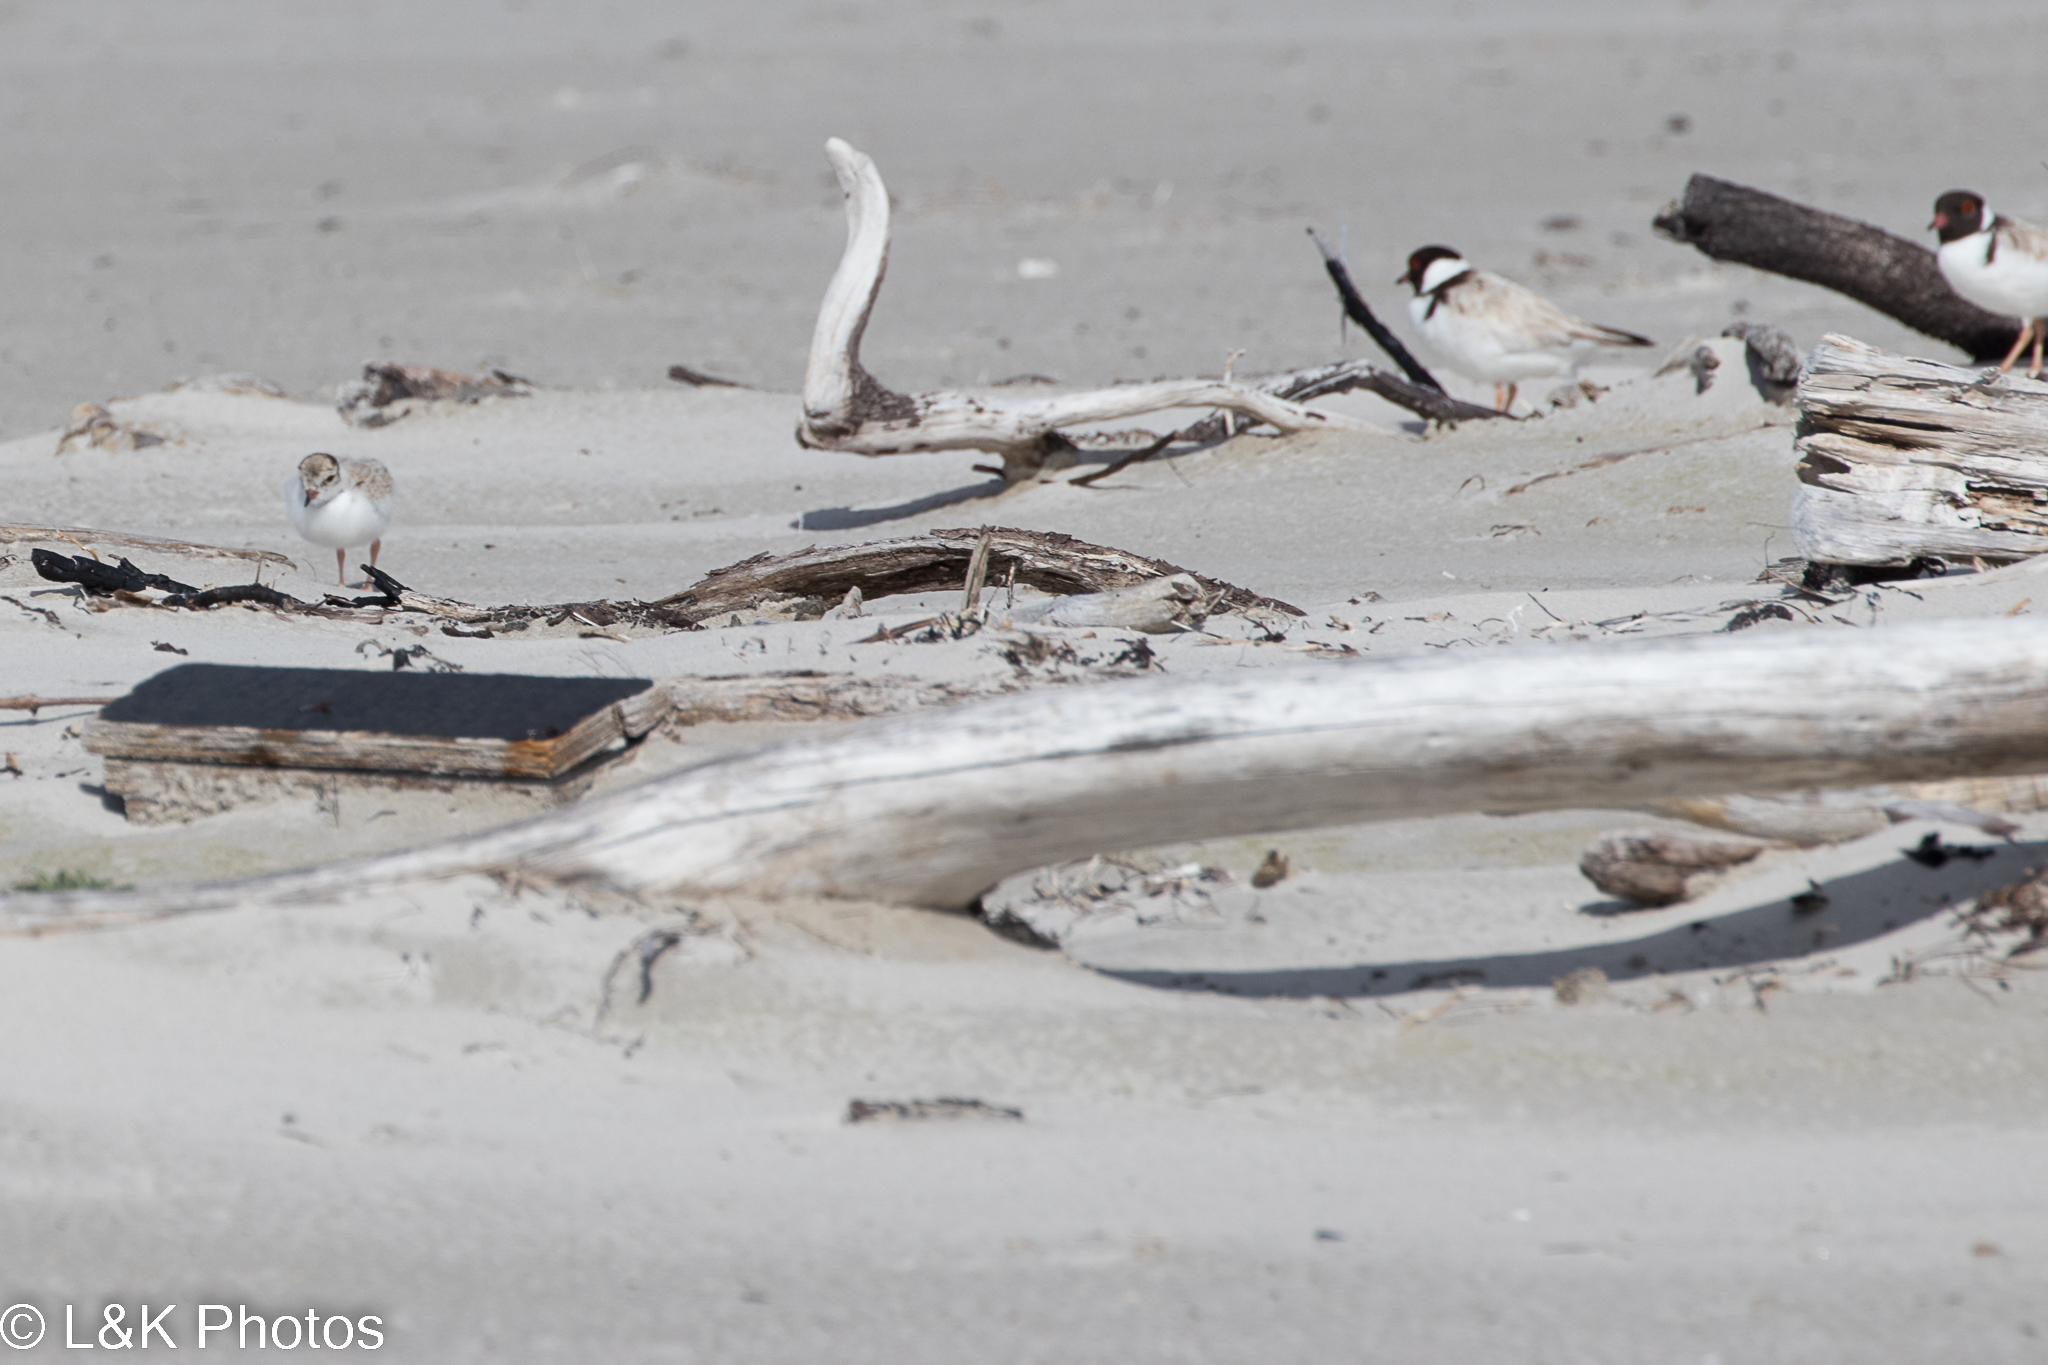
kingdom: Animalia
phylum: Chordata
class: Aves
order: Charadriiformes
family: Charadriidae
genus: Thinornis
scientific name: Thinornis cucullatus
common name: Hooded dotterel
